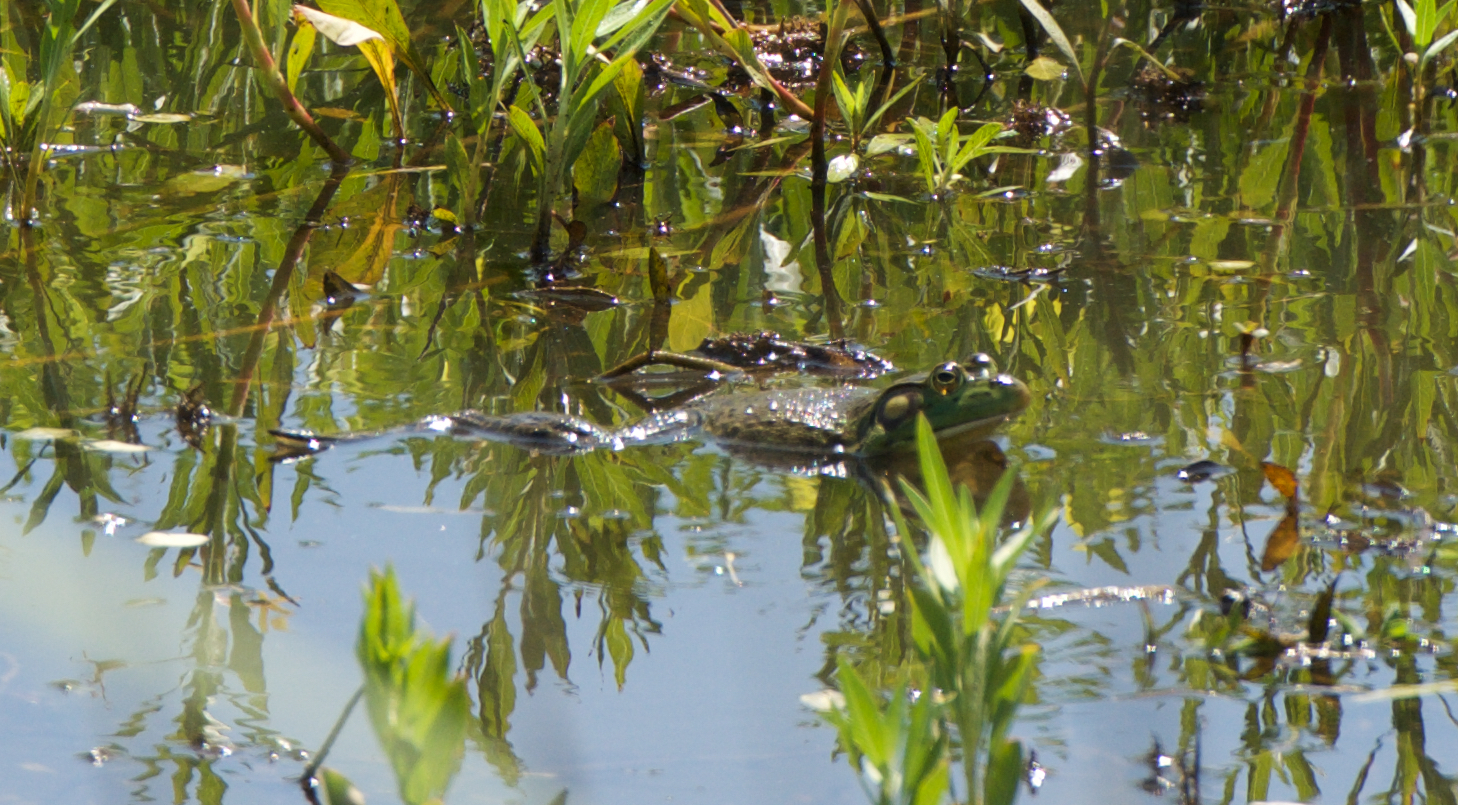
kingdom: Animalia
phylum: Chordata
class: Amphibia
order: Anura
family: Ranidae
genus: Lithobates
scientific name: Lithobates catesbeianus
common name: American bullfrog
